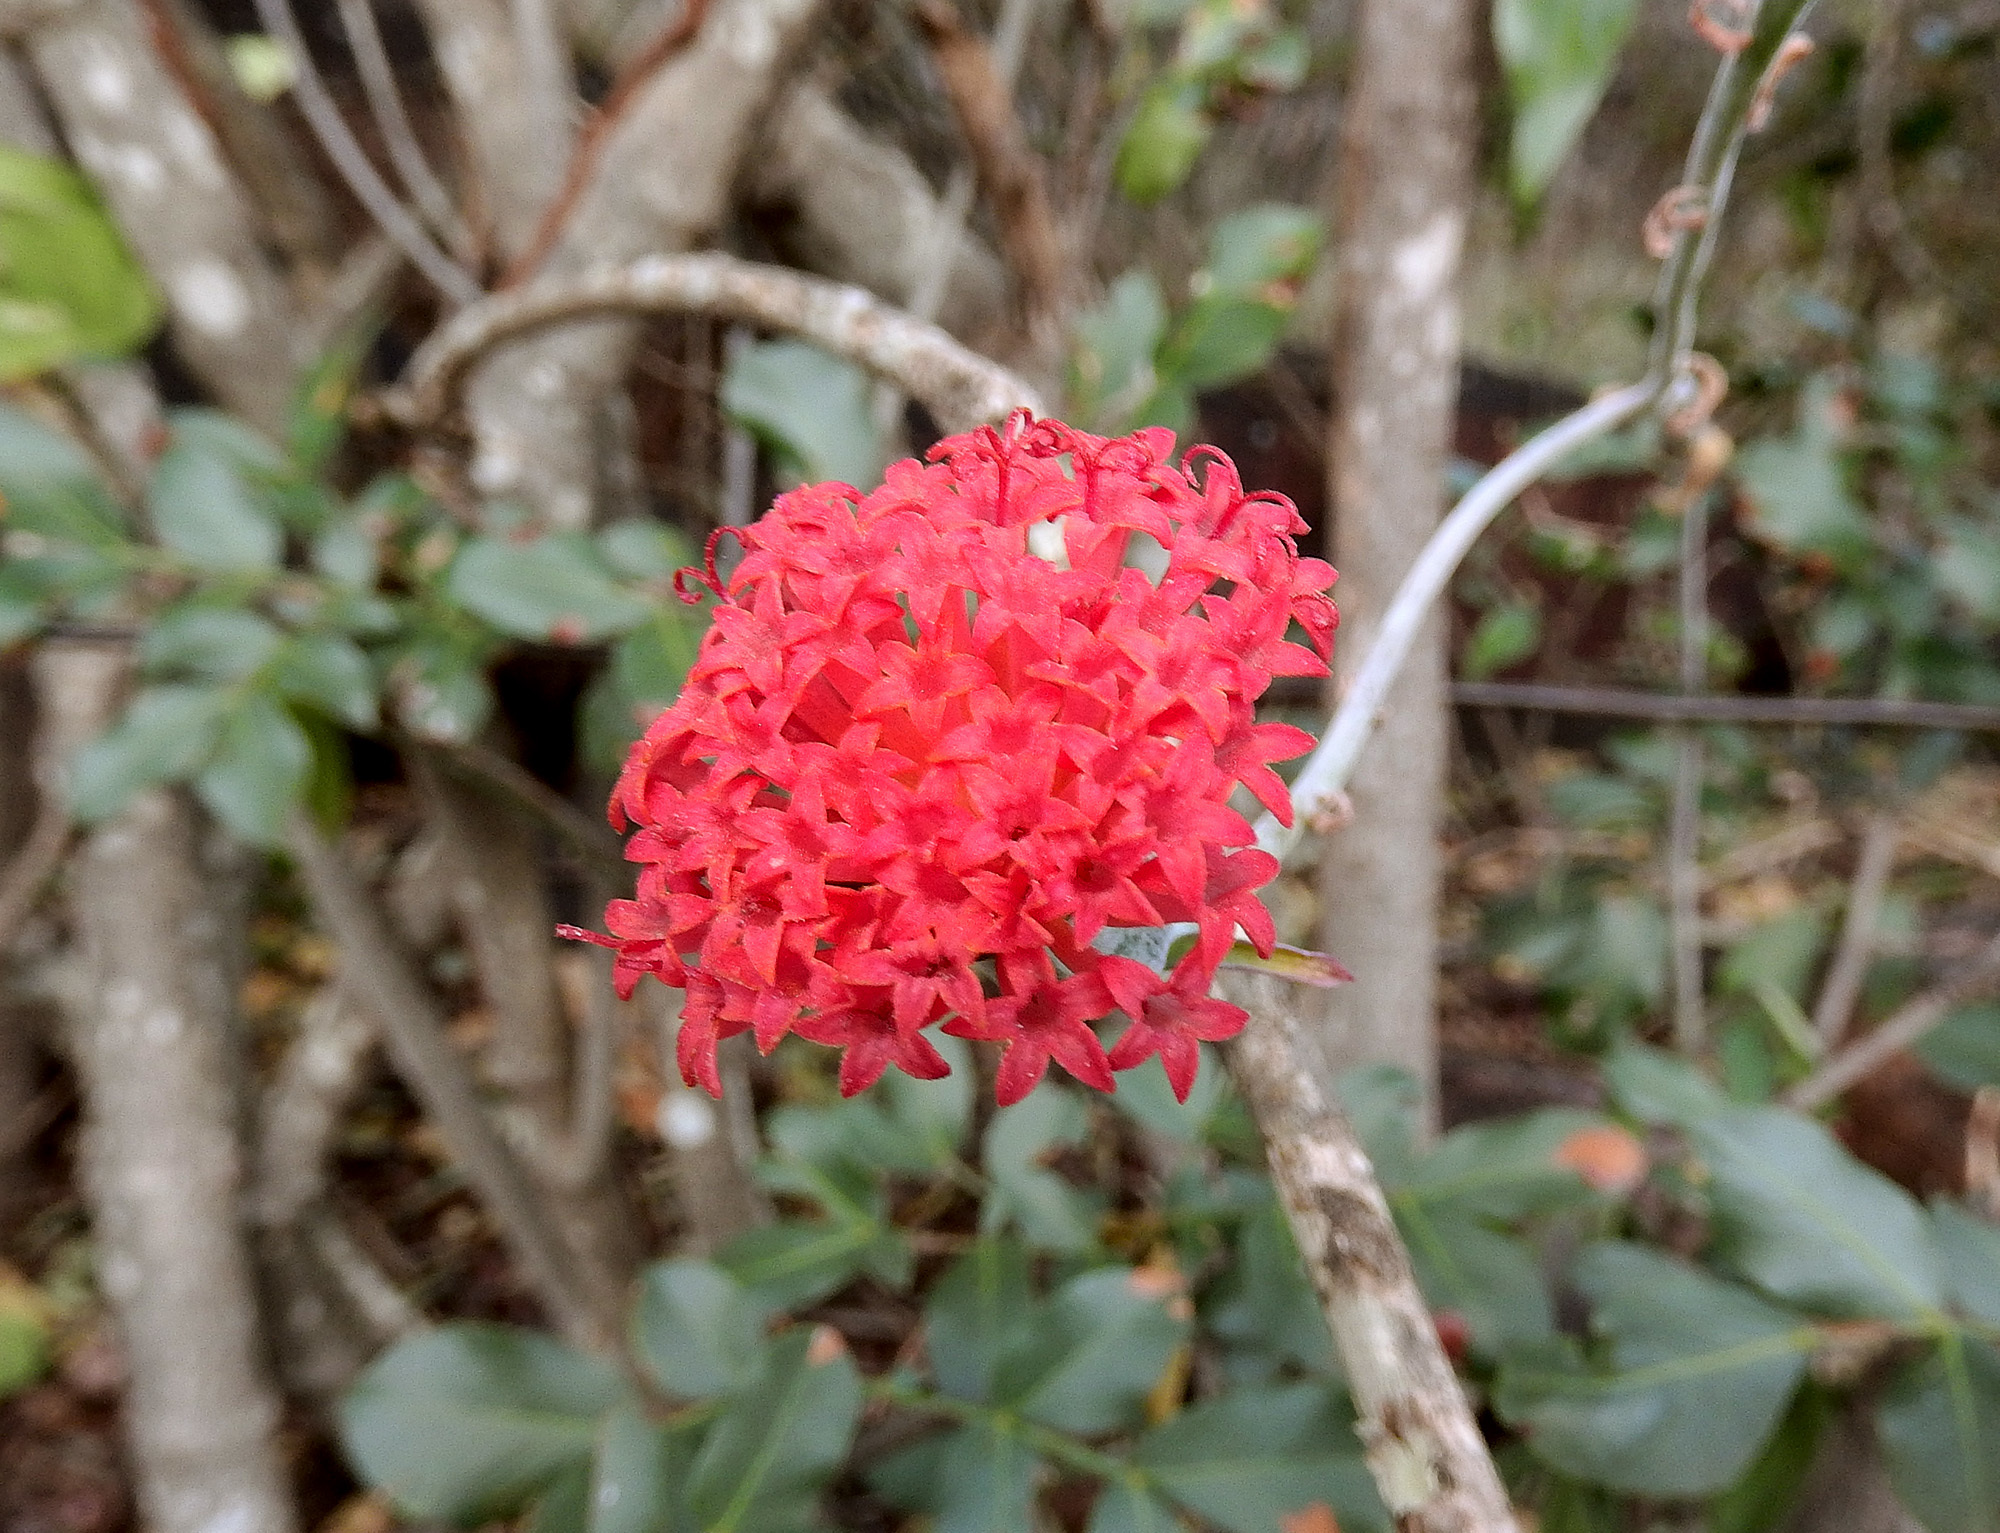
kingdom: Plantae
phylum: Tracheophyta
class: Magnoliopsida
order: Asterales
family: Asteraceae
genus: Kleinia
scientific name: Kleinia fulgens
